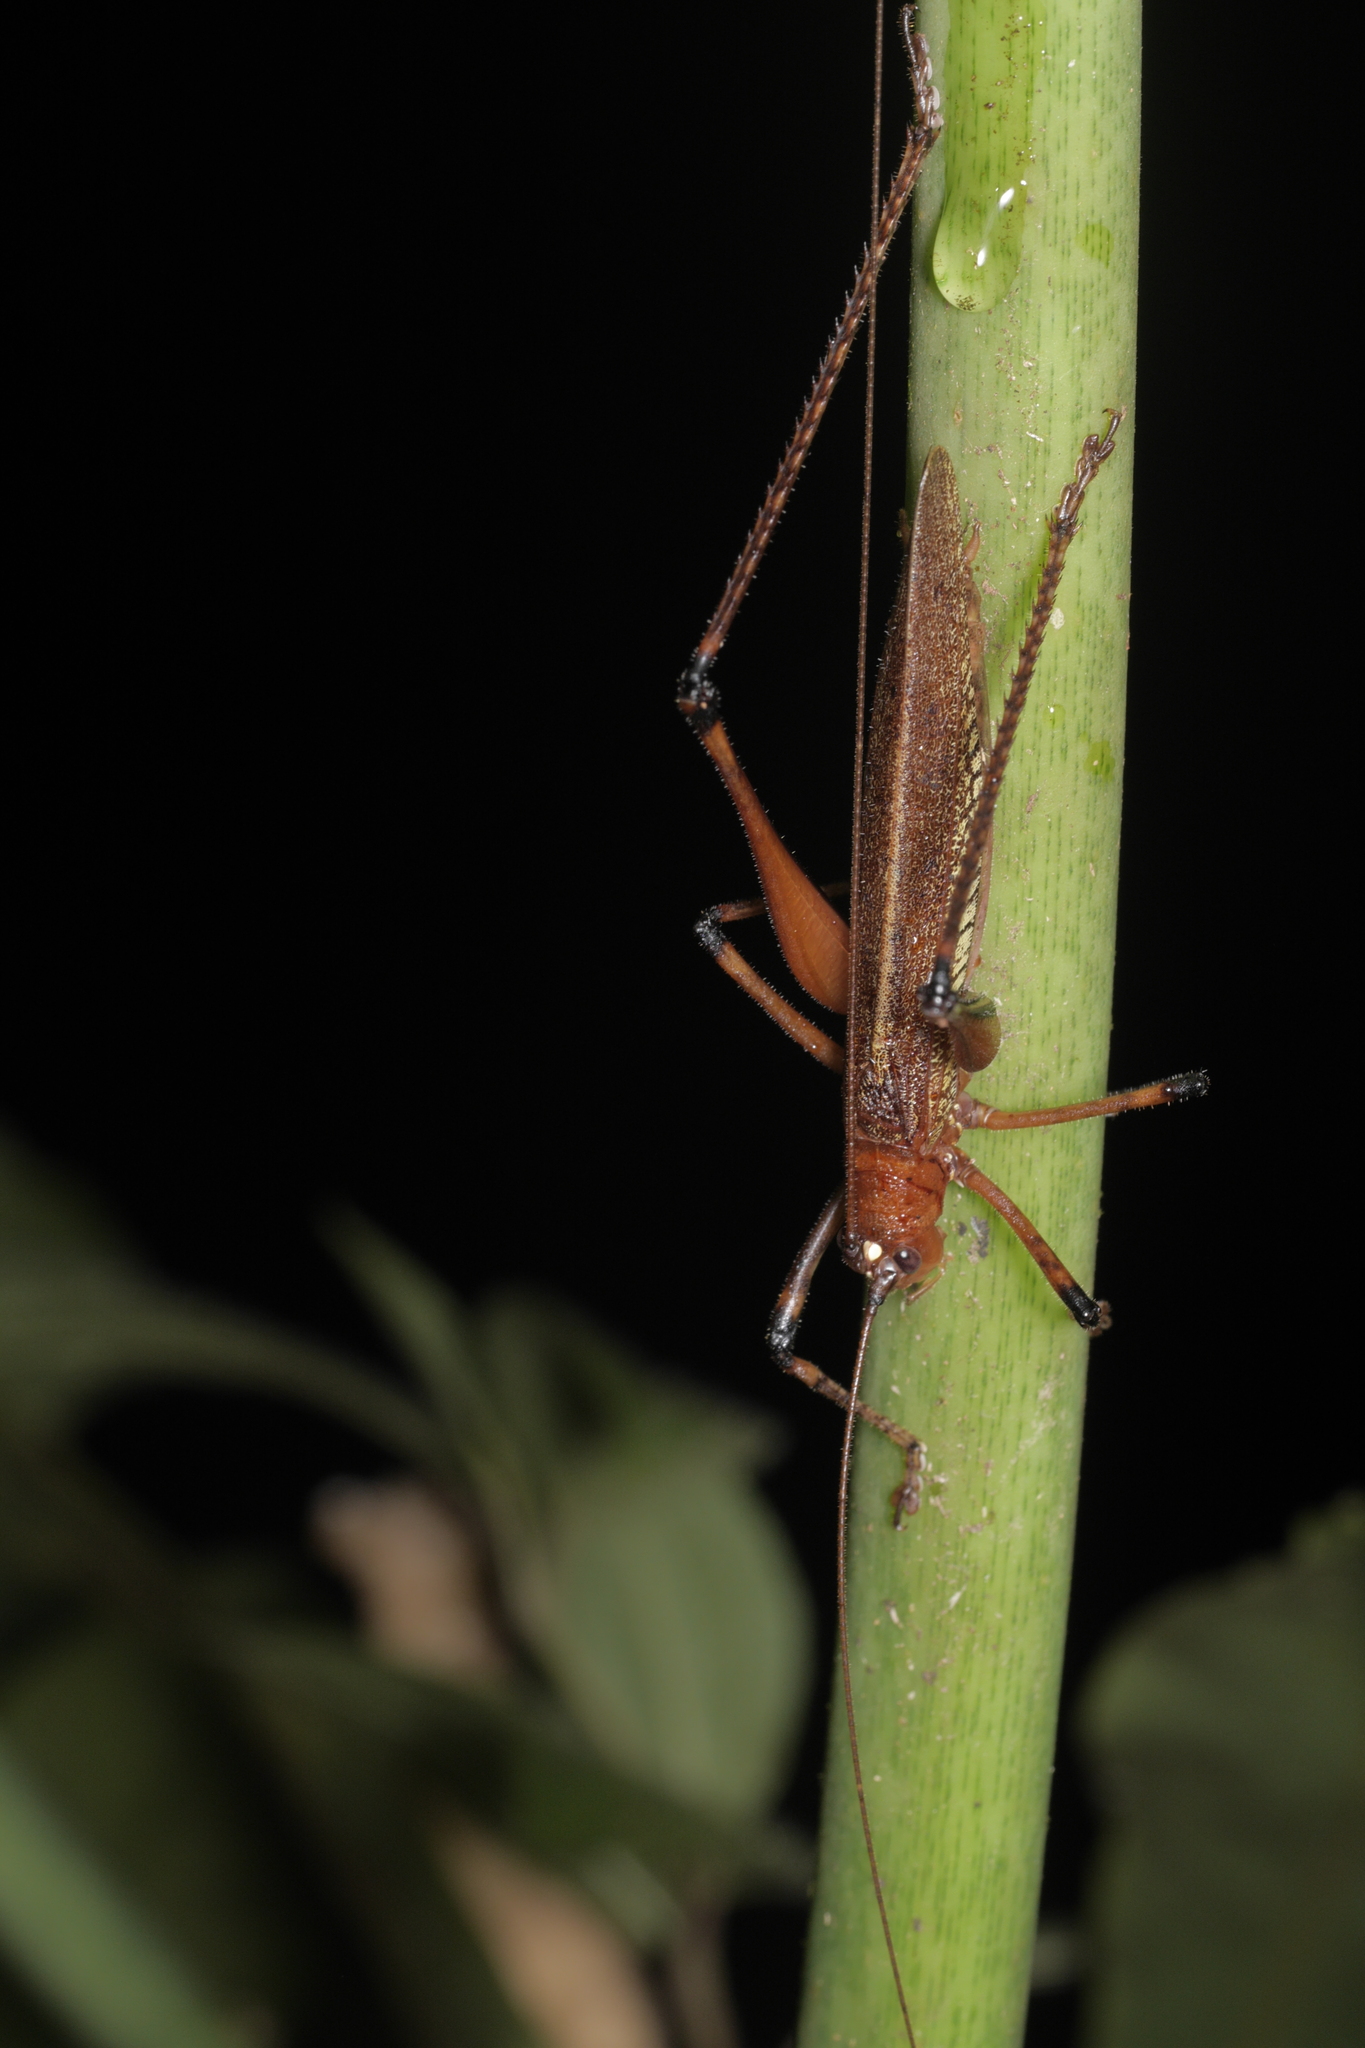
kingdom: Animalia
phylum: Arthropoda
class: Insecta
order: Orthoptera
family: Tettigoniidae
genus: Ischnomela
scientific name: Ischnomela gracilis
